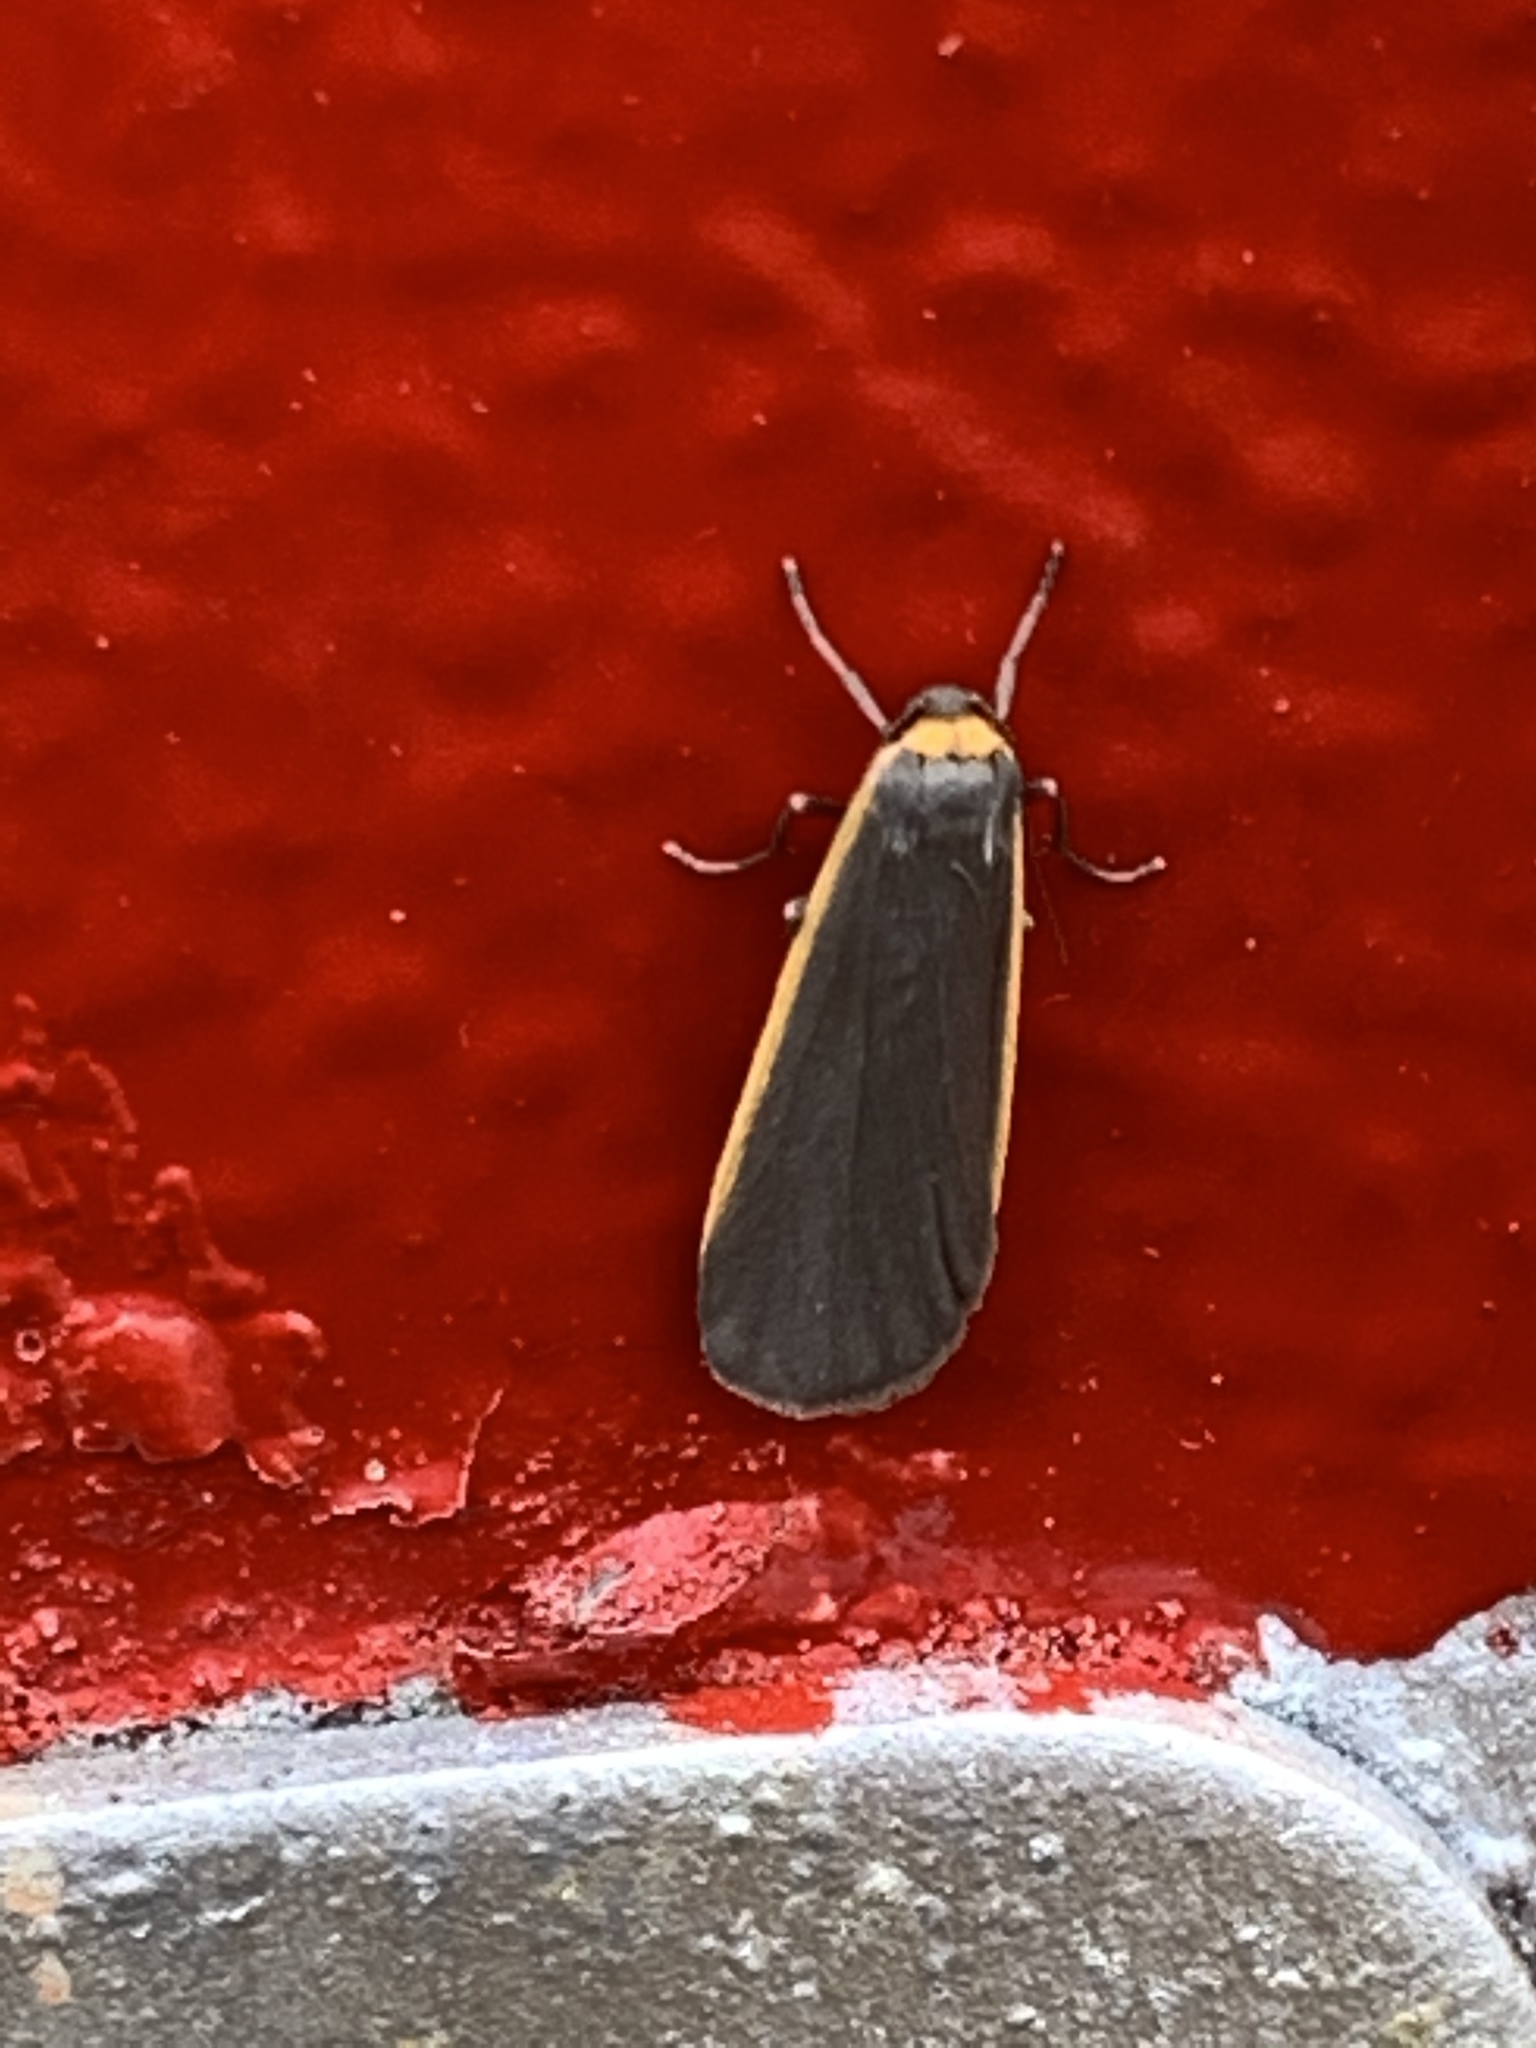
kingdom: Animalia
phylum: Arthropoda
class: Insecta
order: Lepidoptera
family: Erebidae
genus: Manulea
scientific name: Manulea bicolor
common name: Bicolored moth
